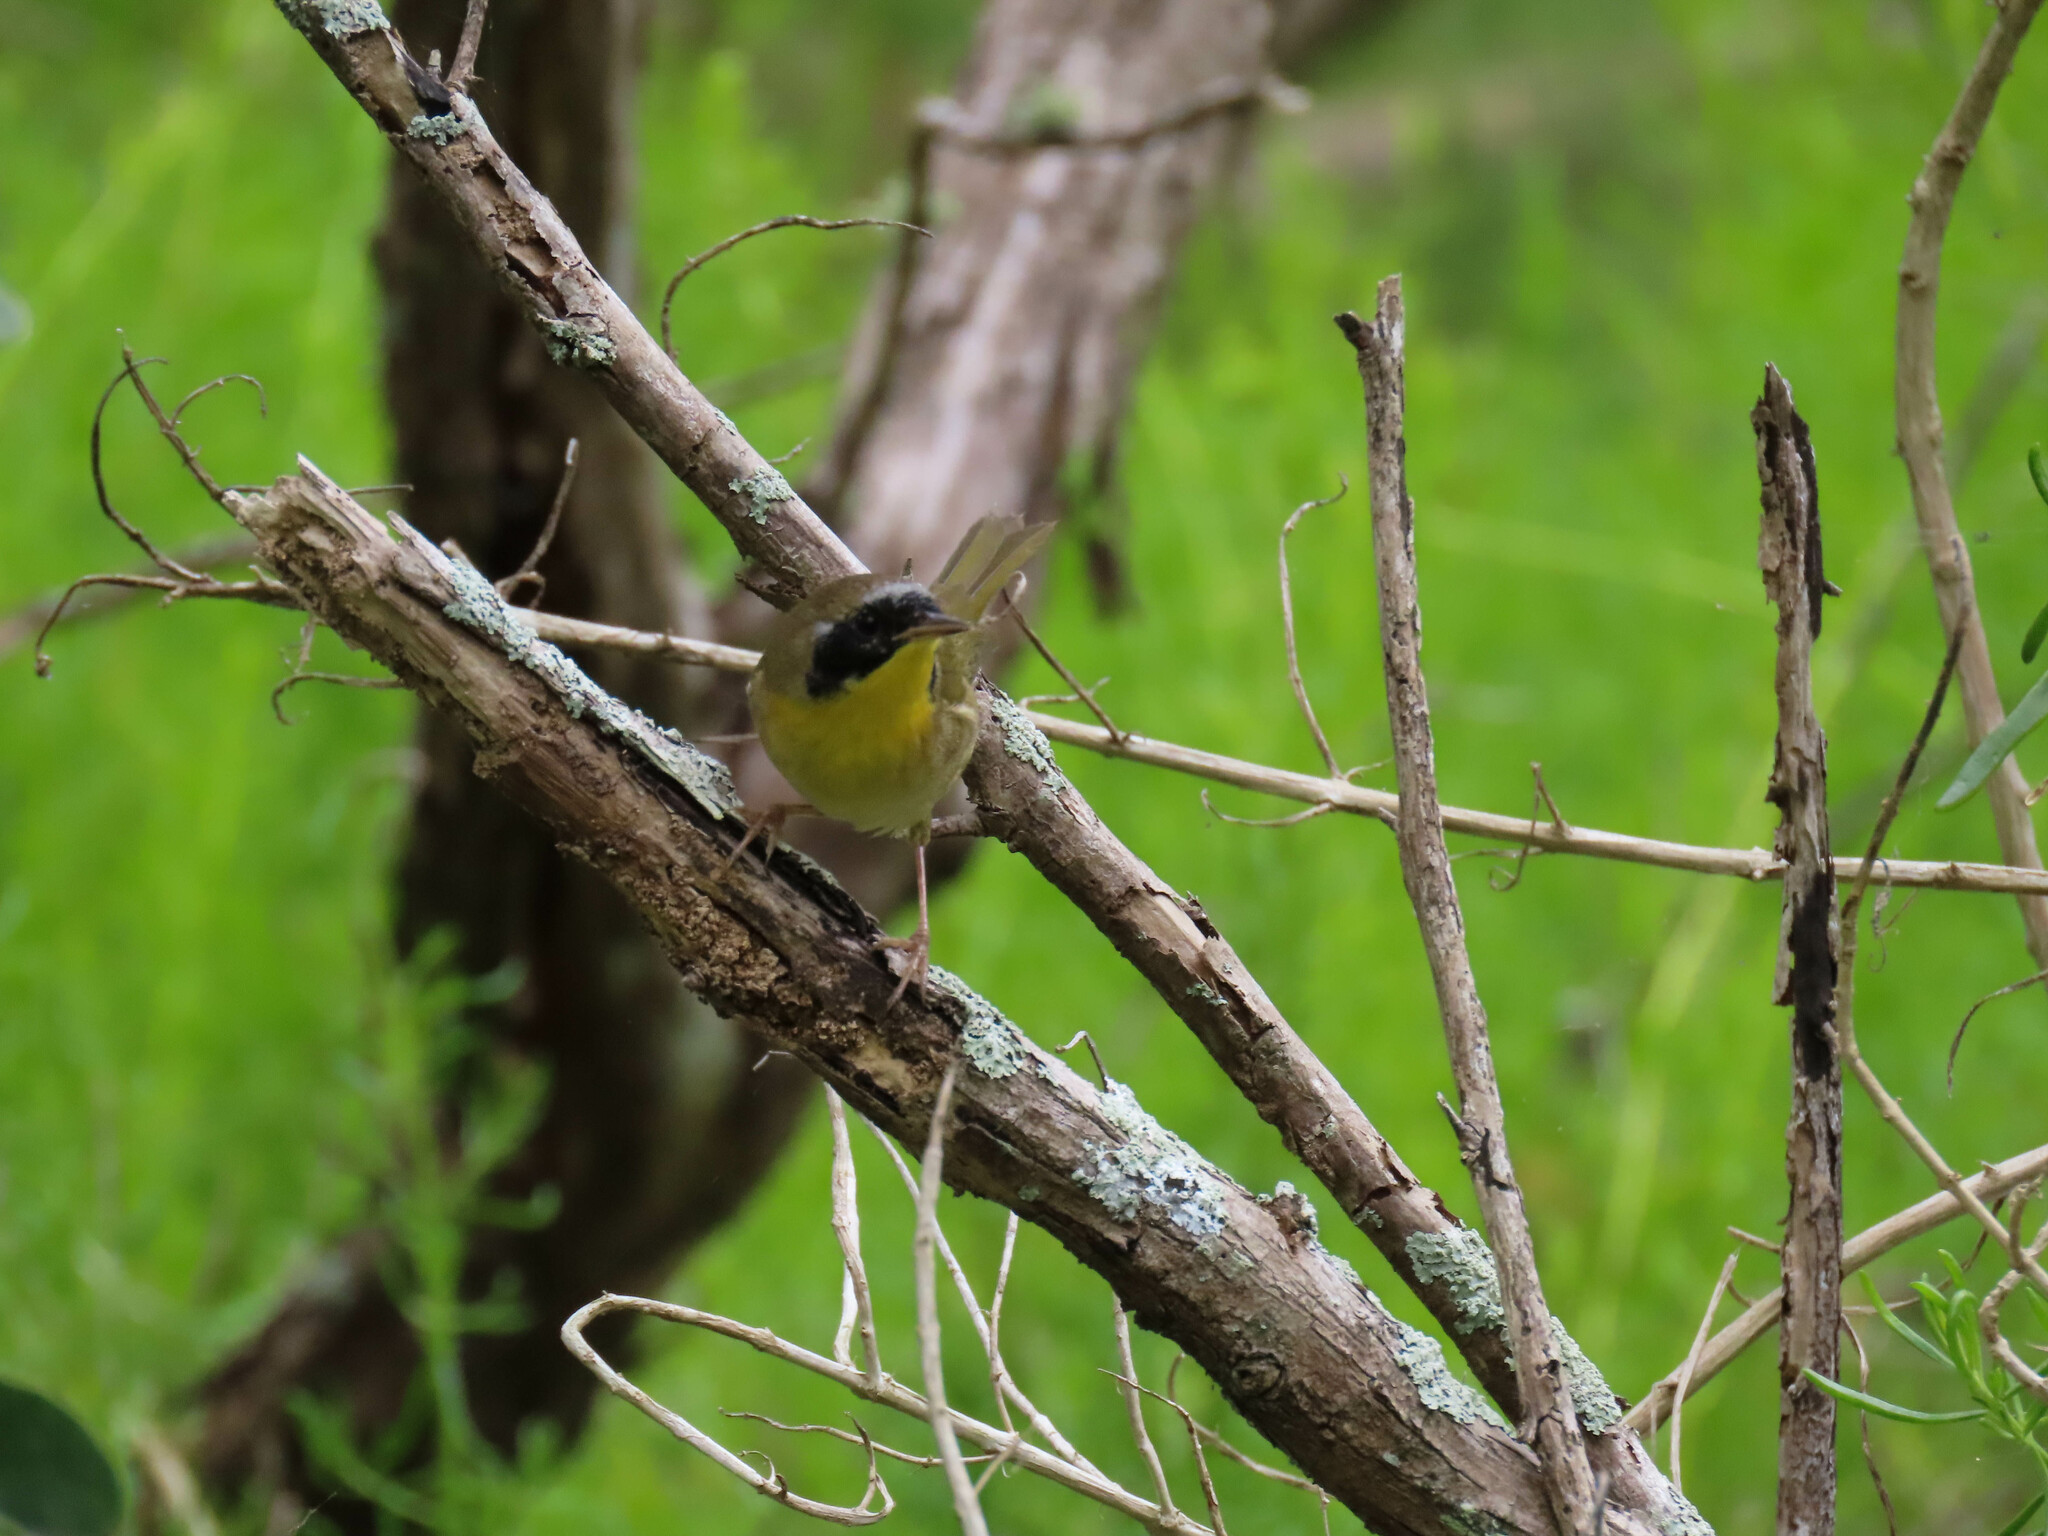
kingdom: Animalia
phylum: Chordata
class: Aves
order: Passeriformes
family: Parulidae
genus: Geothlypis
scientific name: Geothlypis trichas
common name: Common yellowthroat
